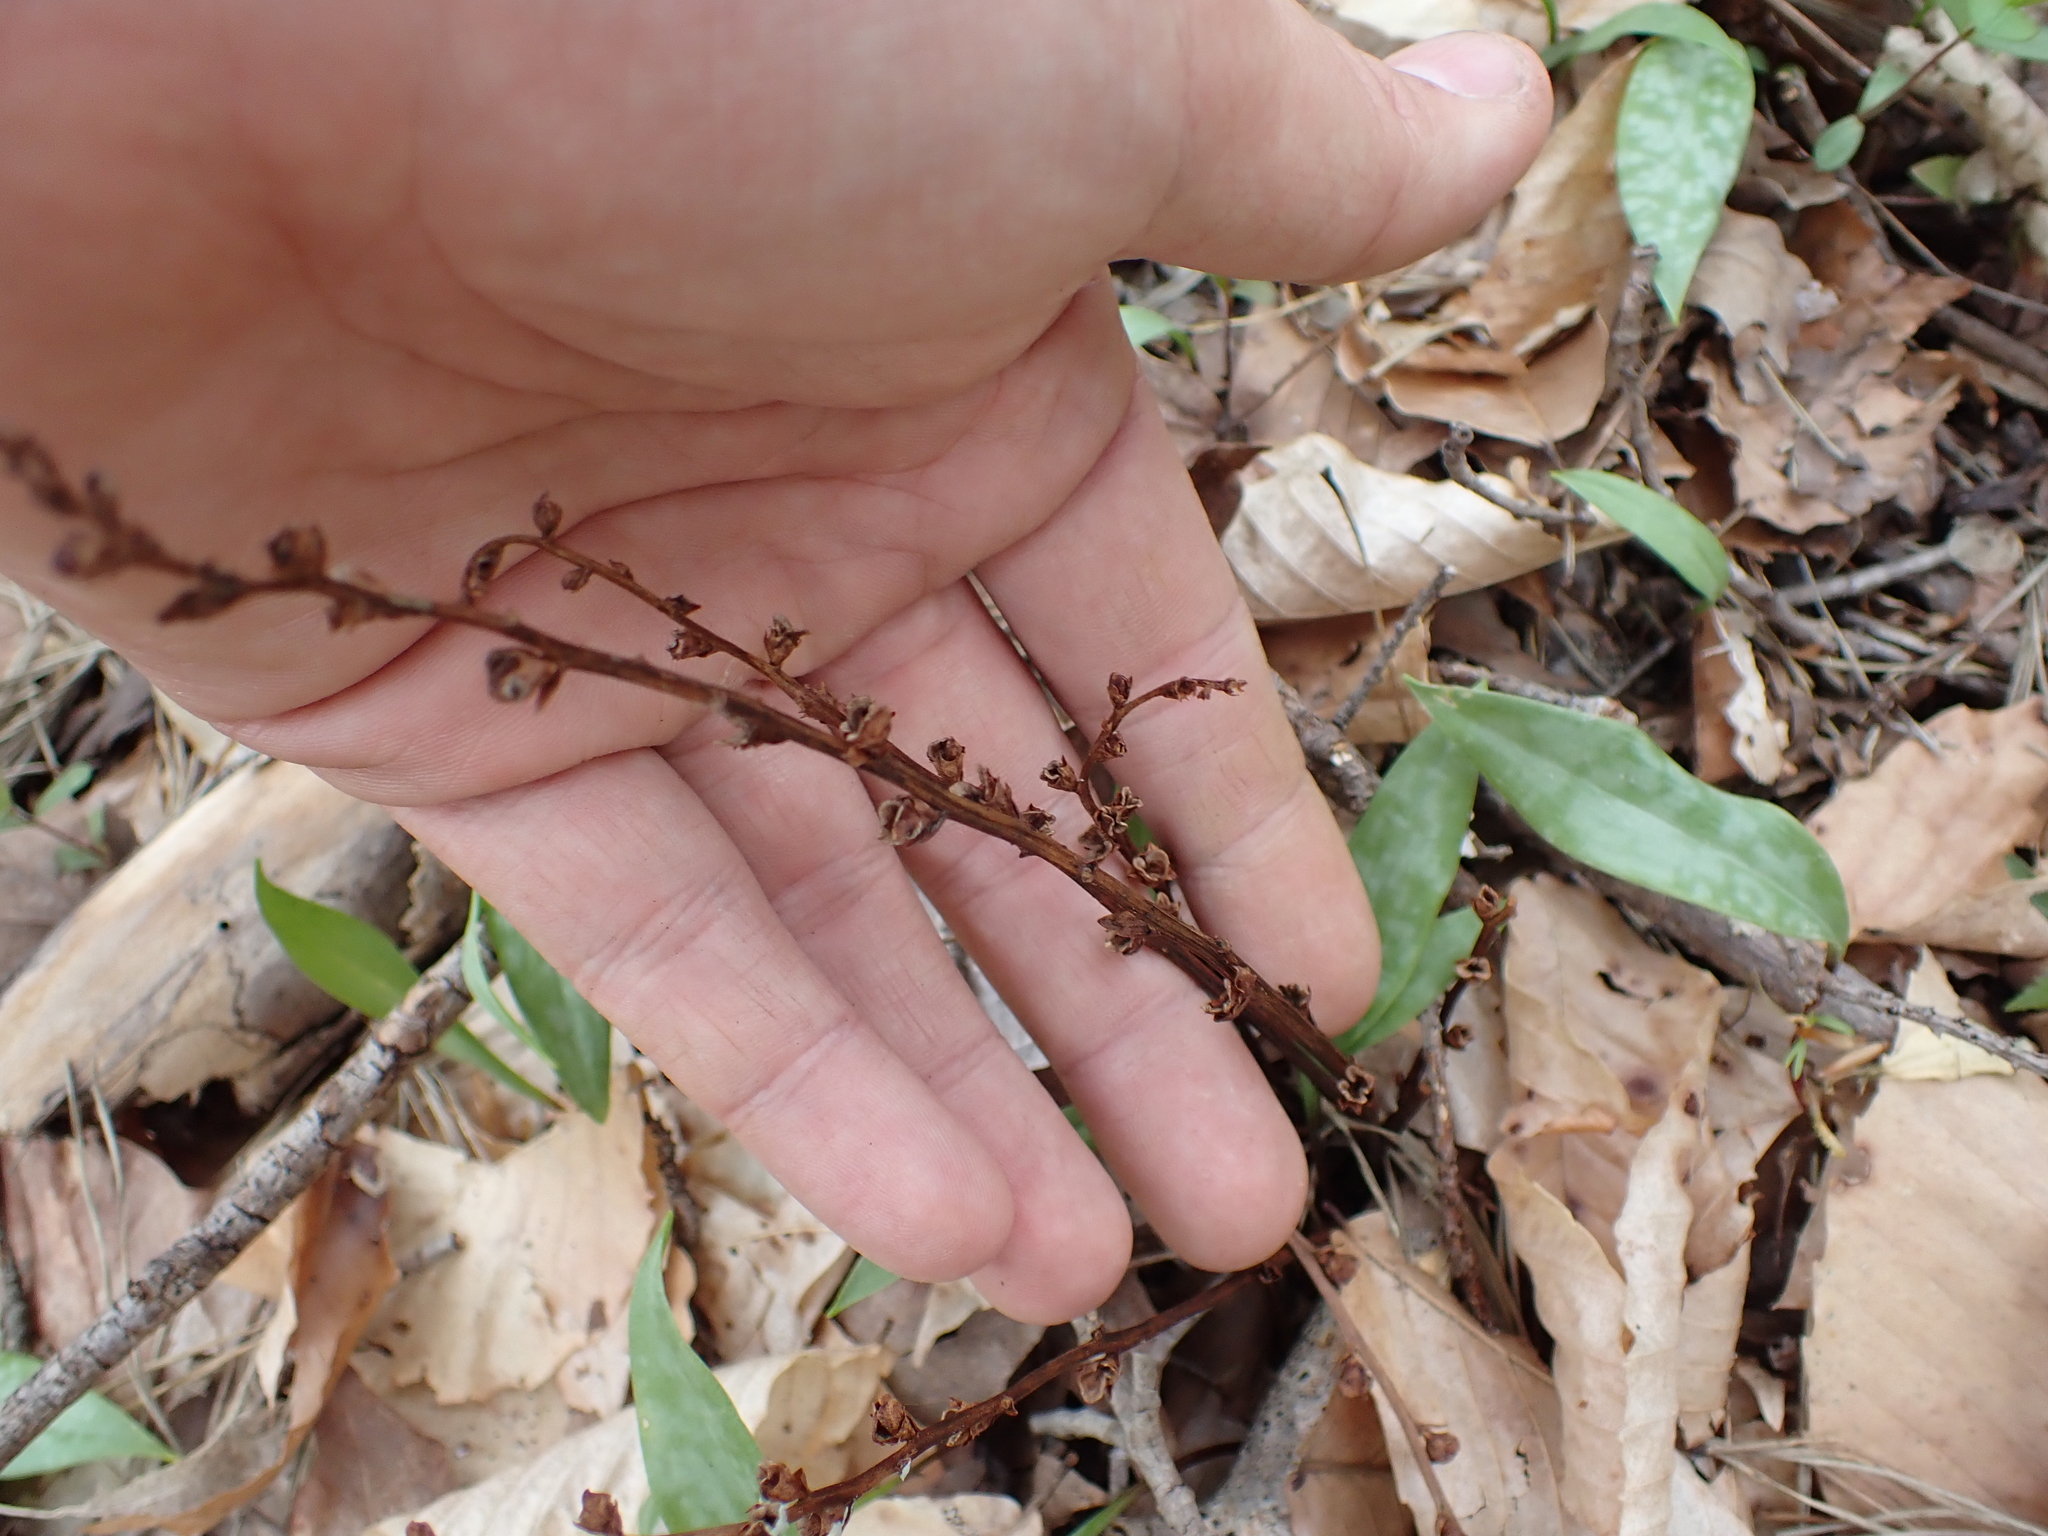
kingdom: Plantae
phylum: Tracheophyta
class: Magnoliopsida
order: Lamiales
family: Orobanchaceae
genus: Epifagus
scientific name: Epifagus virginiana
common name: Beechdrops
